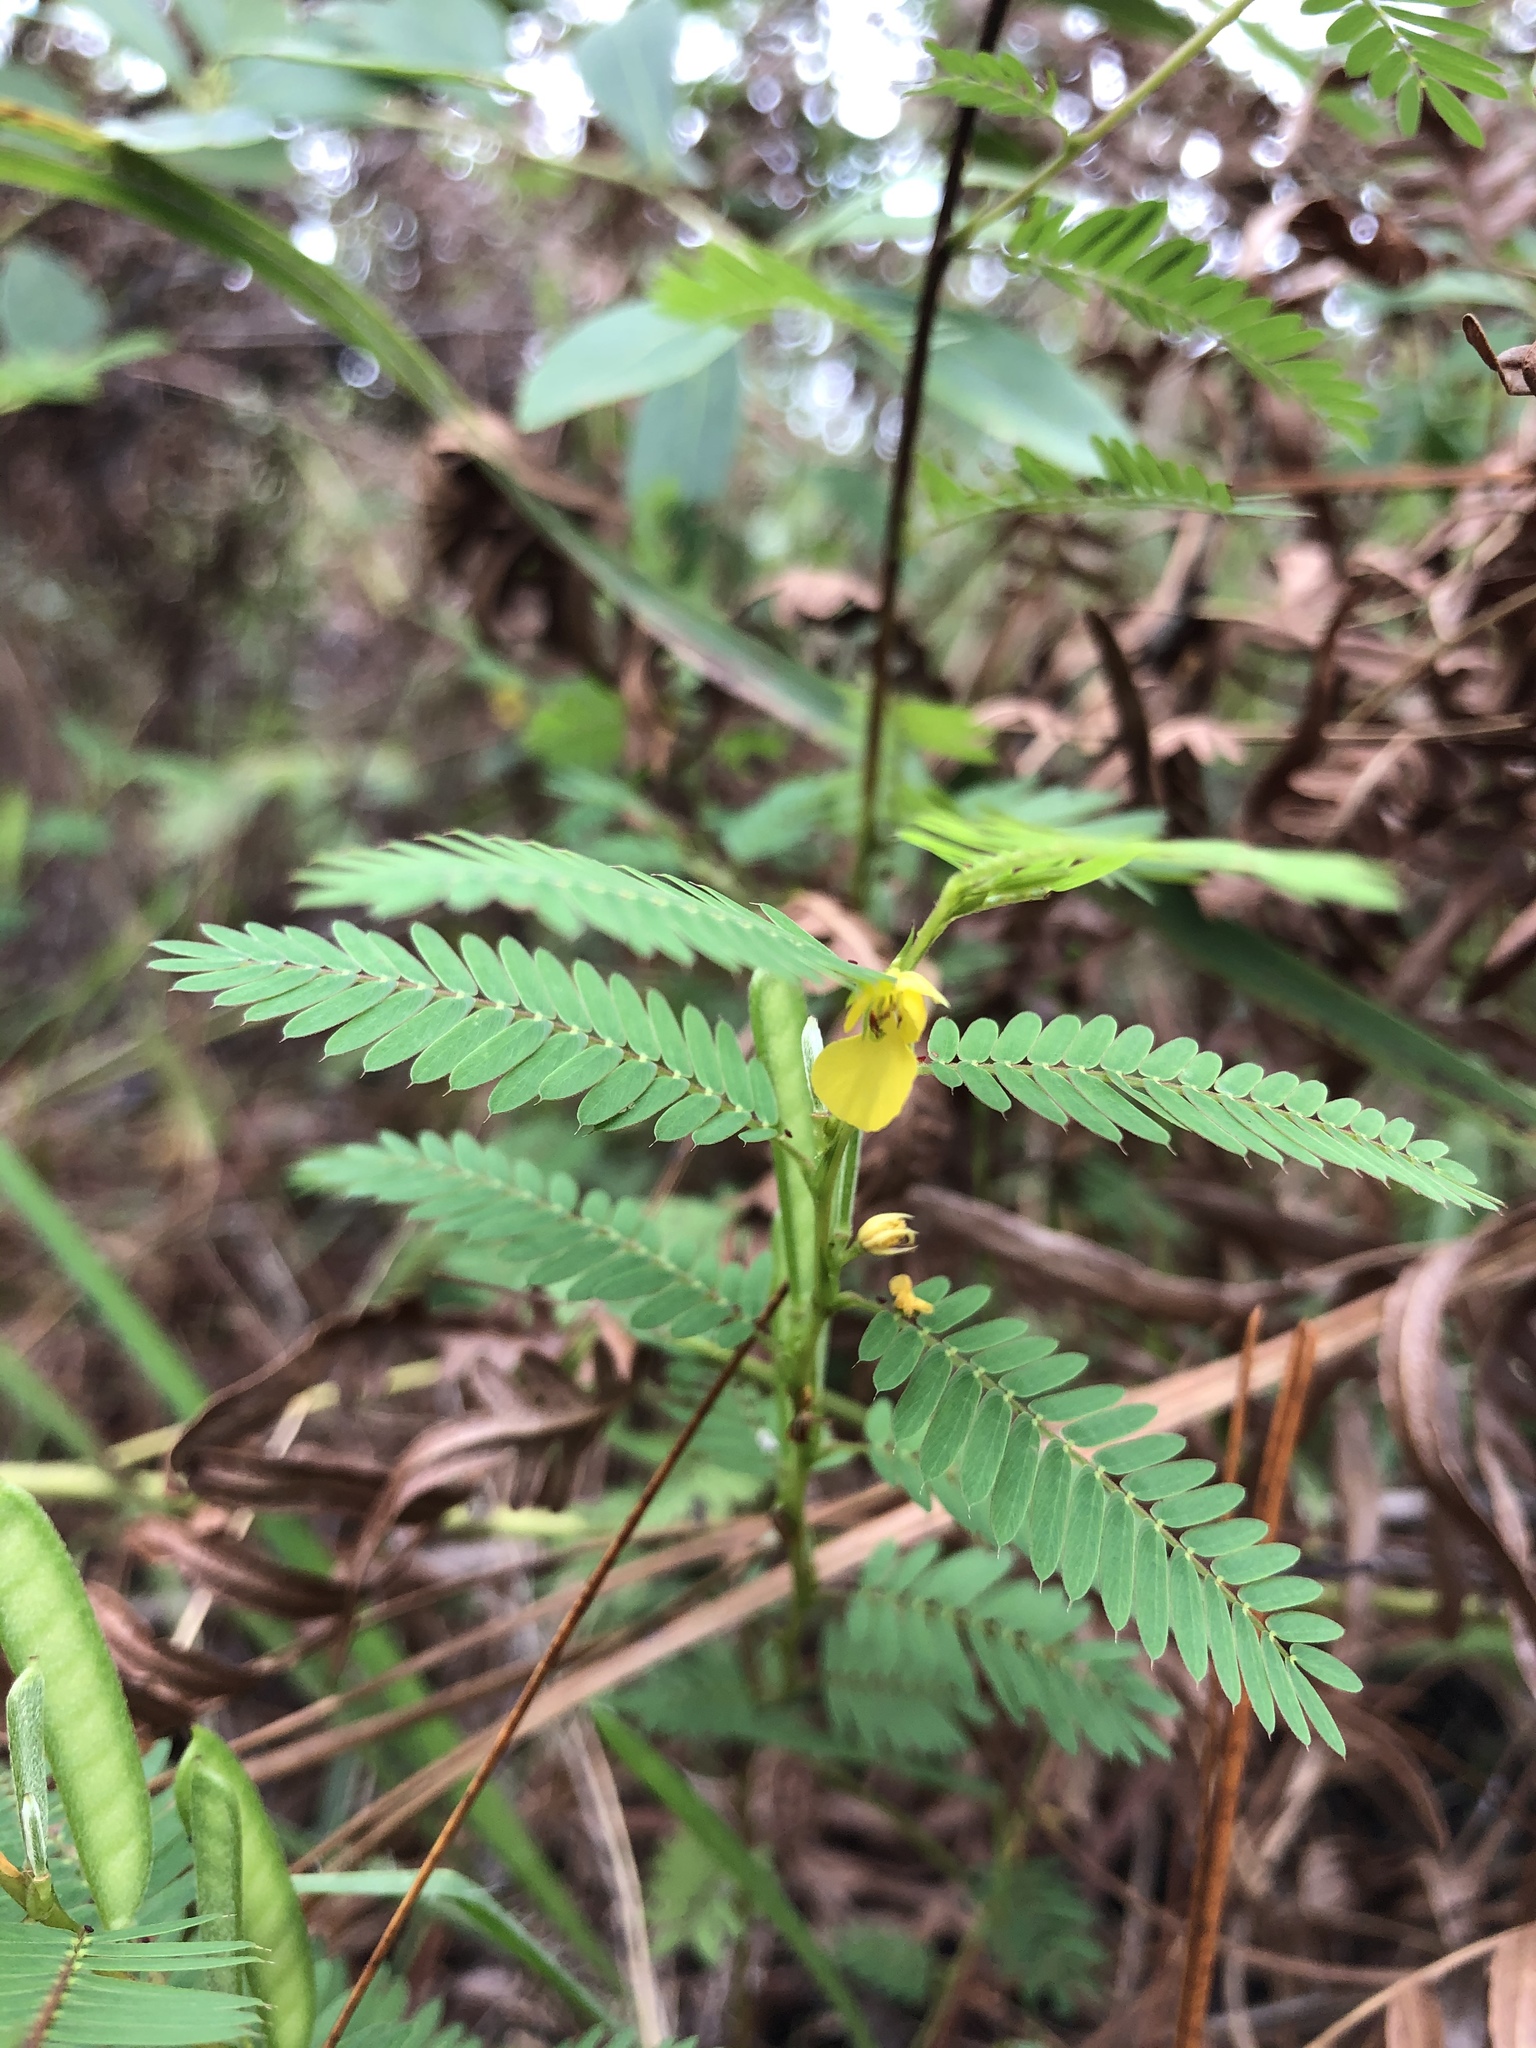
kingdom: Plantae
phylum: Tracheophyta
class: Magnoliopsida
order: Fabales
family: Fabaceae
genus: Chamaecrista
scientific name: Chamaecrista nictitans
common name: Sensitive cassia
